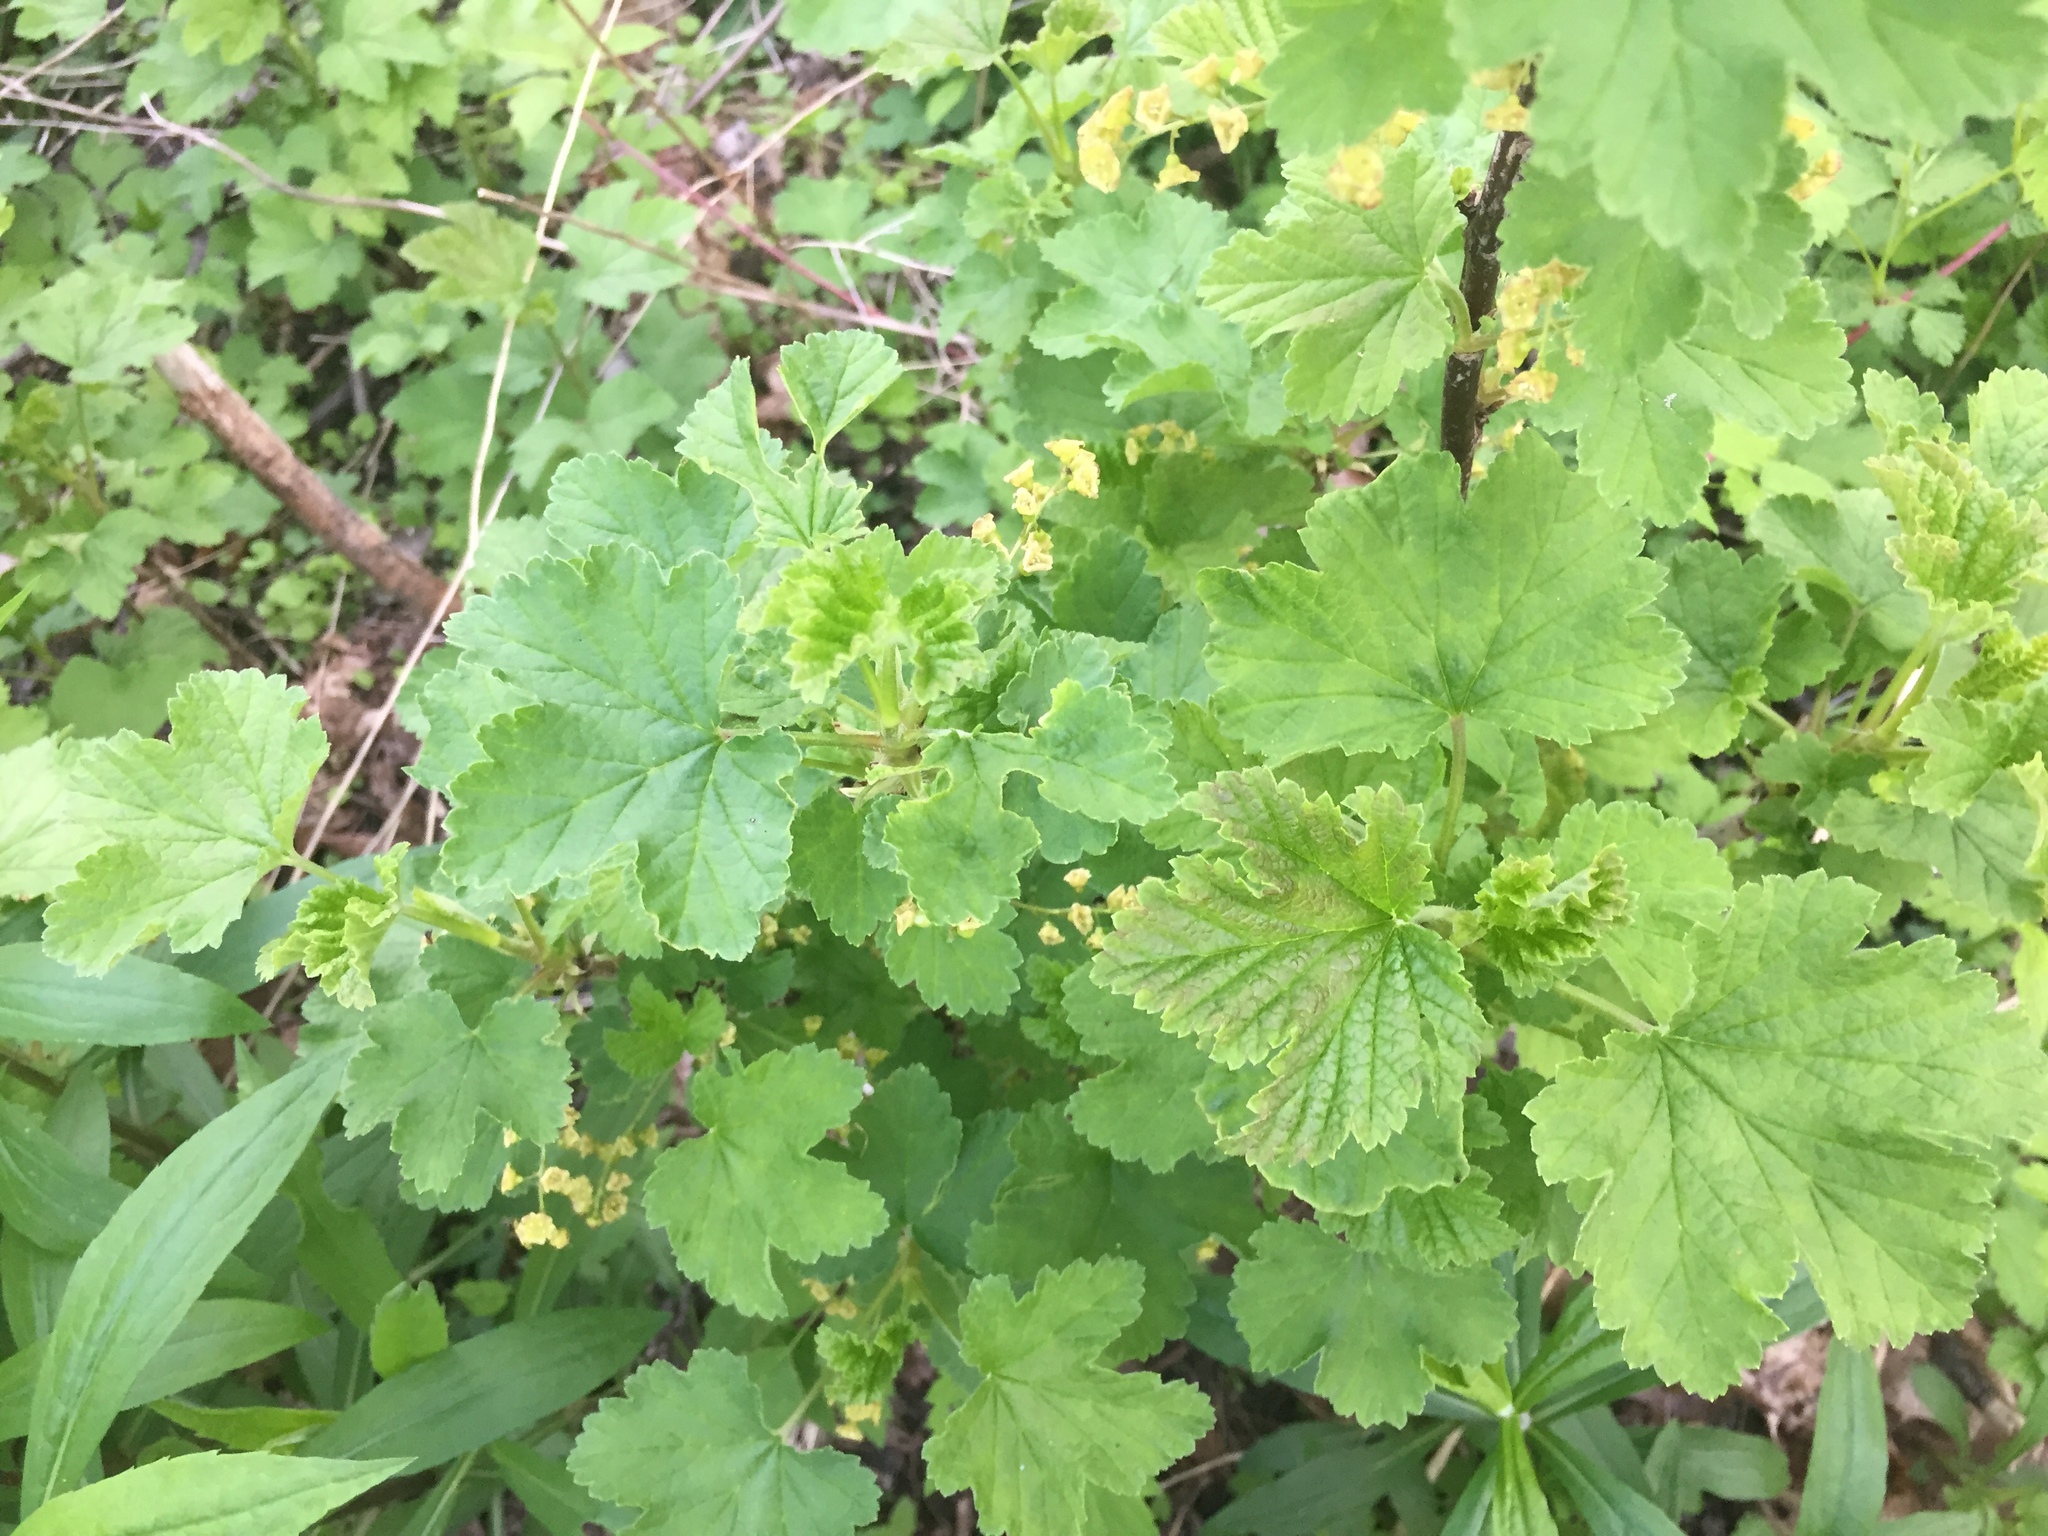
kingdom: Plantae
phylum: Tracheophyta
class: Magnoliopsida
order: Saxifragales
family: Grossulariaceae
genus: Ribes
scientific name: Ribes rubrum
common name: Red currant
